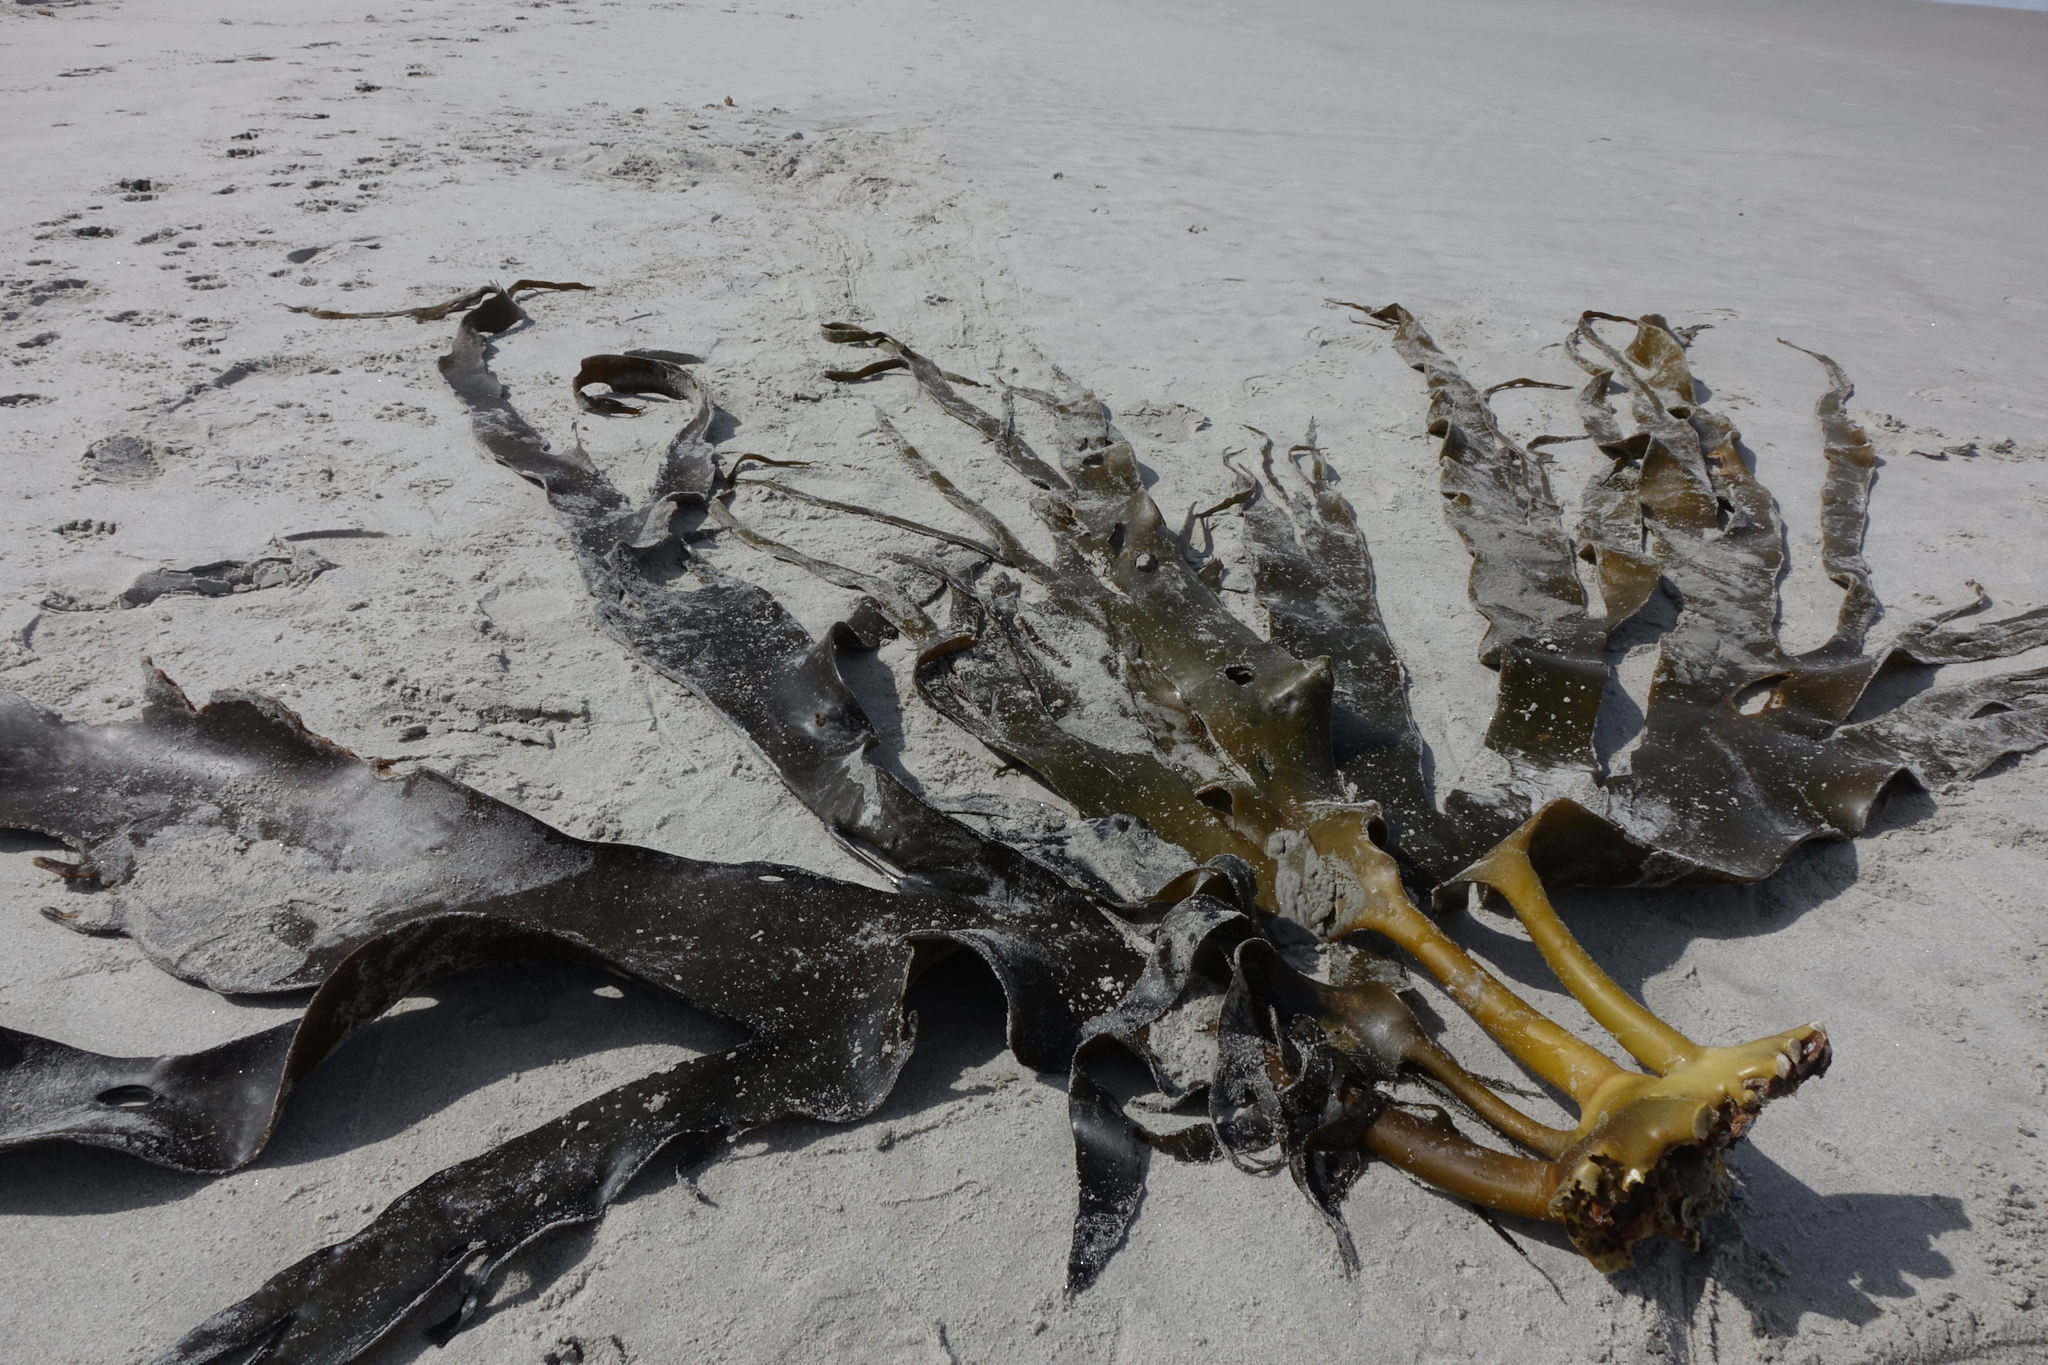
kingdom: Chromista
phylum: Ochrophyta
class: Phaeophyceae
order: Fucales
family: Durvillaeaceae
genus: Durvillaea
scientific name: Durvillaea antarctica
